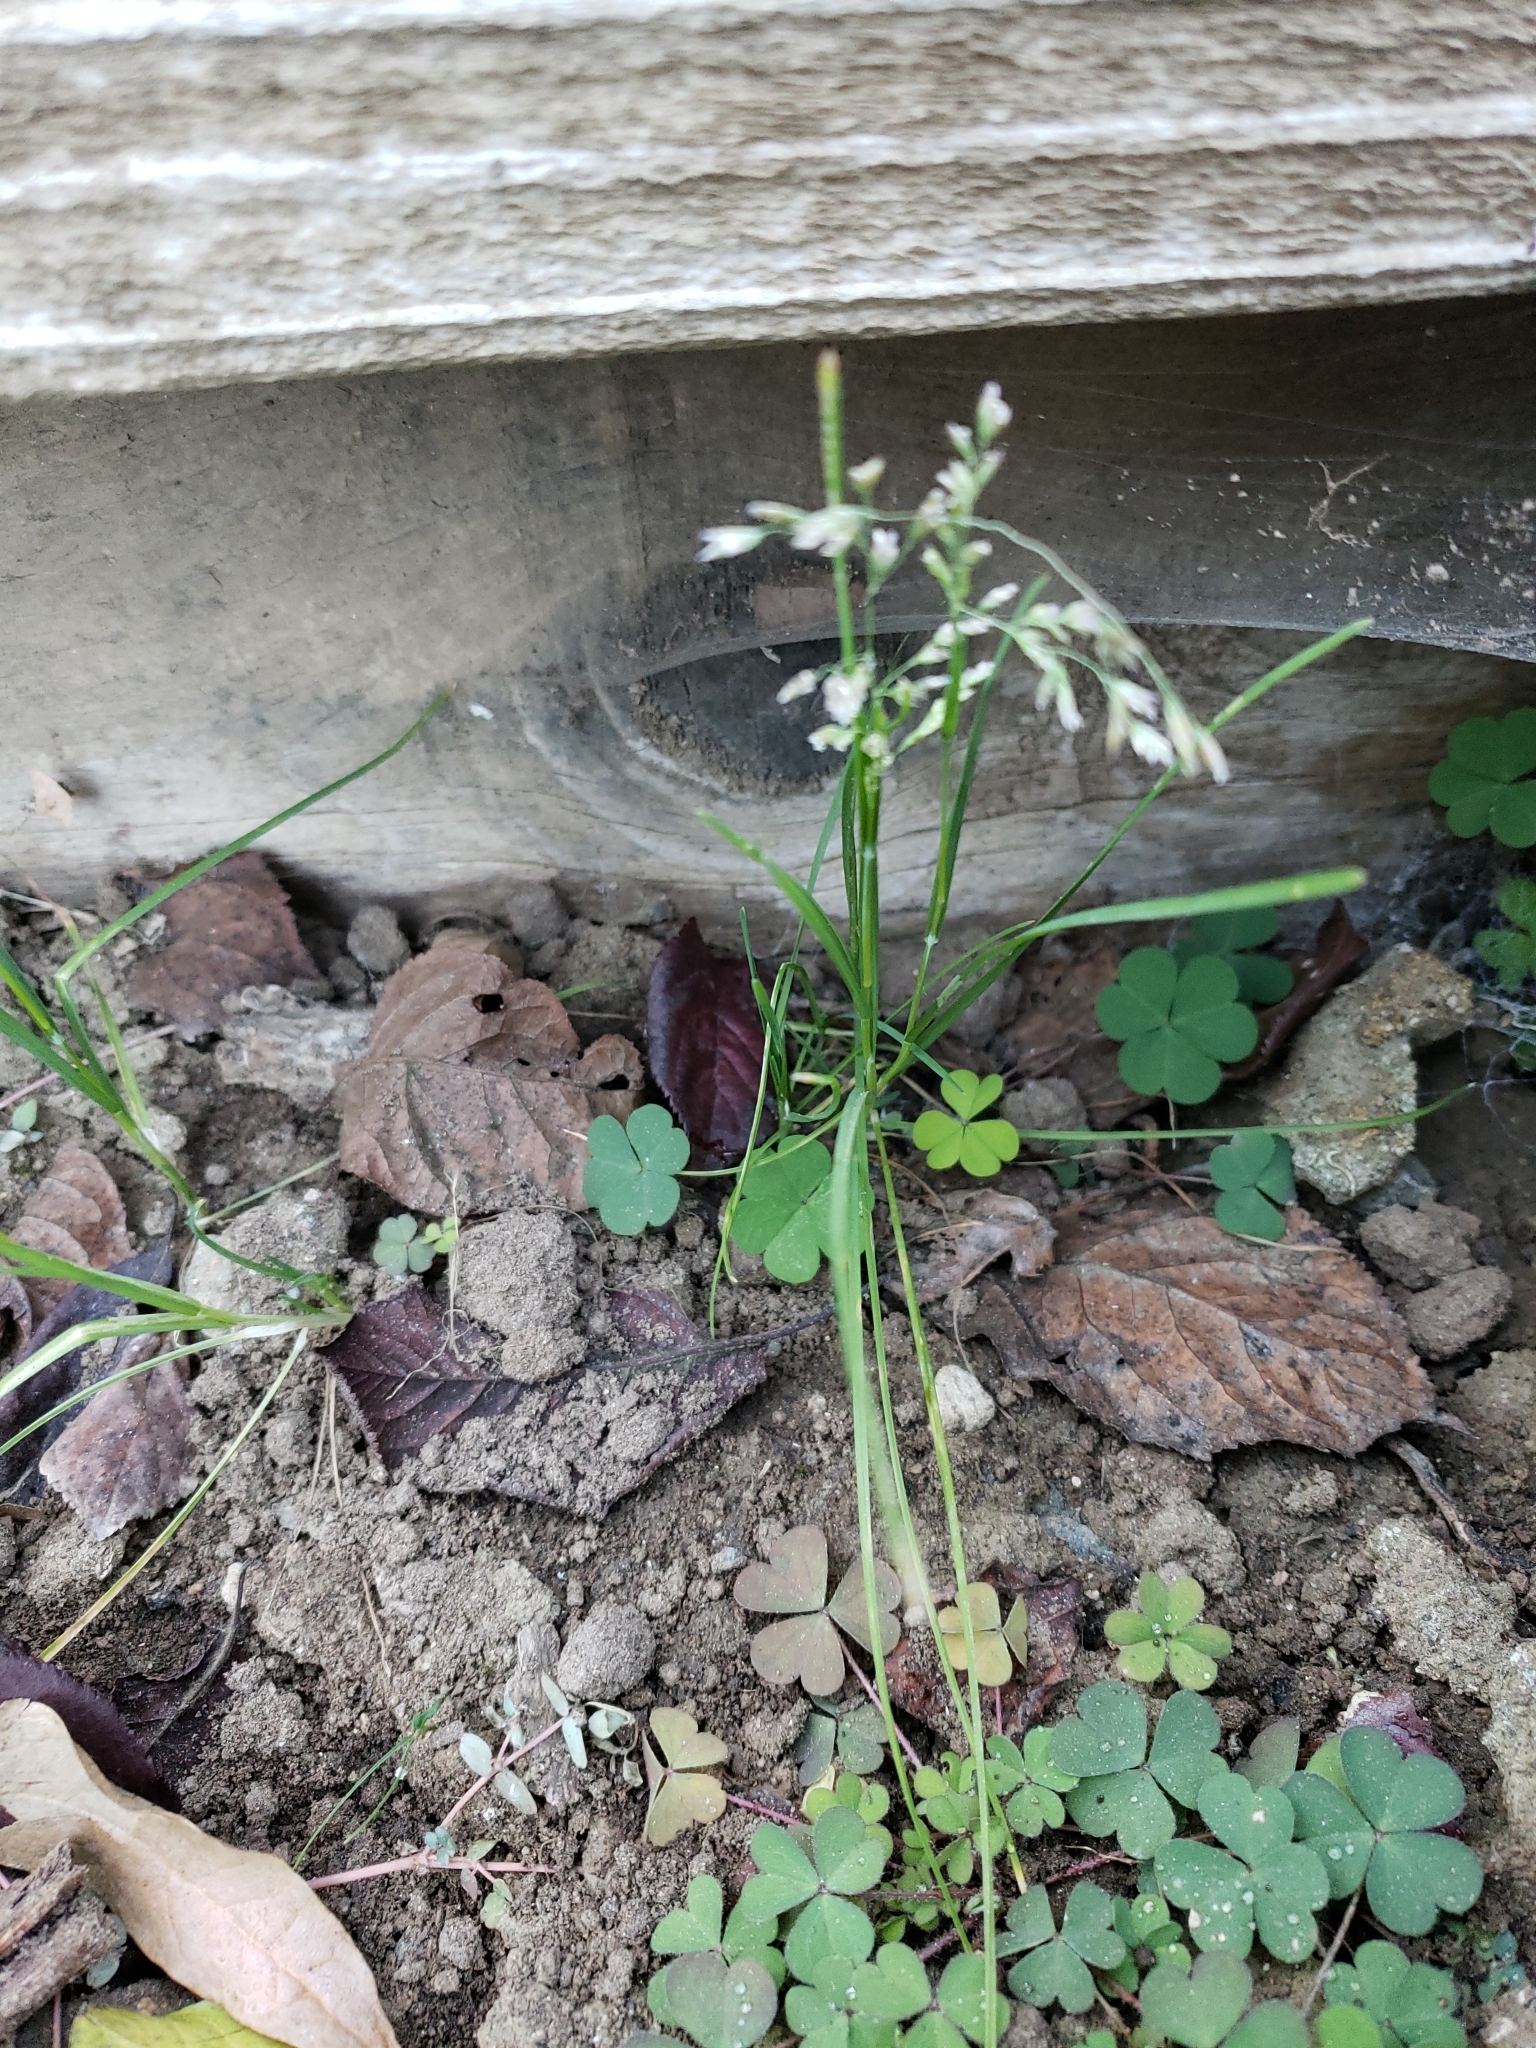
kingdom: Plantae
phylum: Tracheophyta
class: Liliopsida
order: Poales
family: Poaceae
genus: Poa
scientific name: Poa annua
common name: Annual bluegrass
